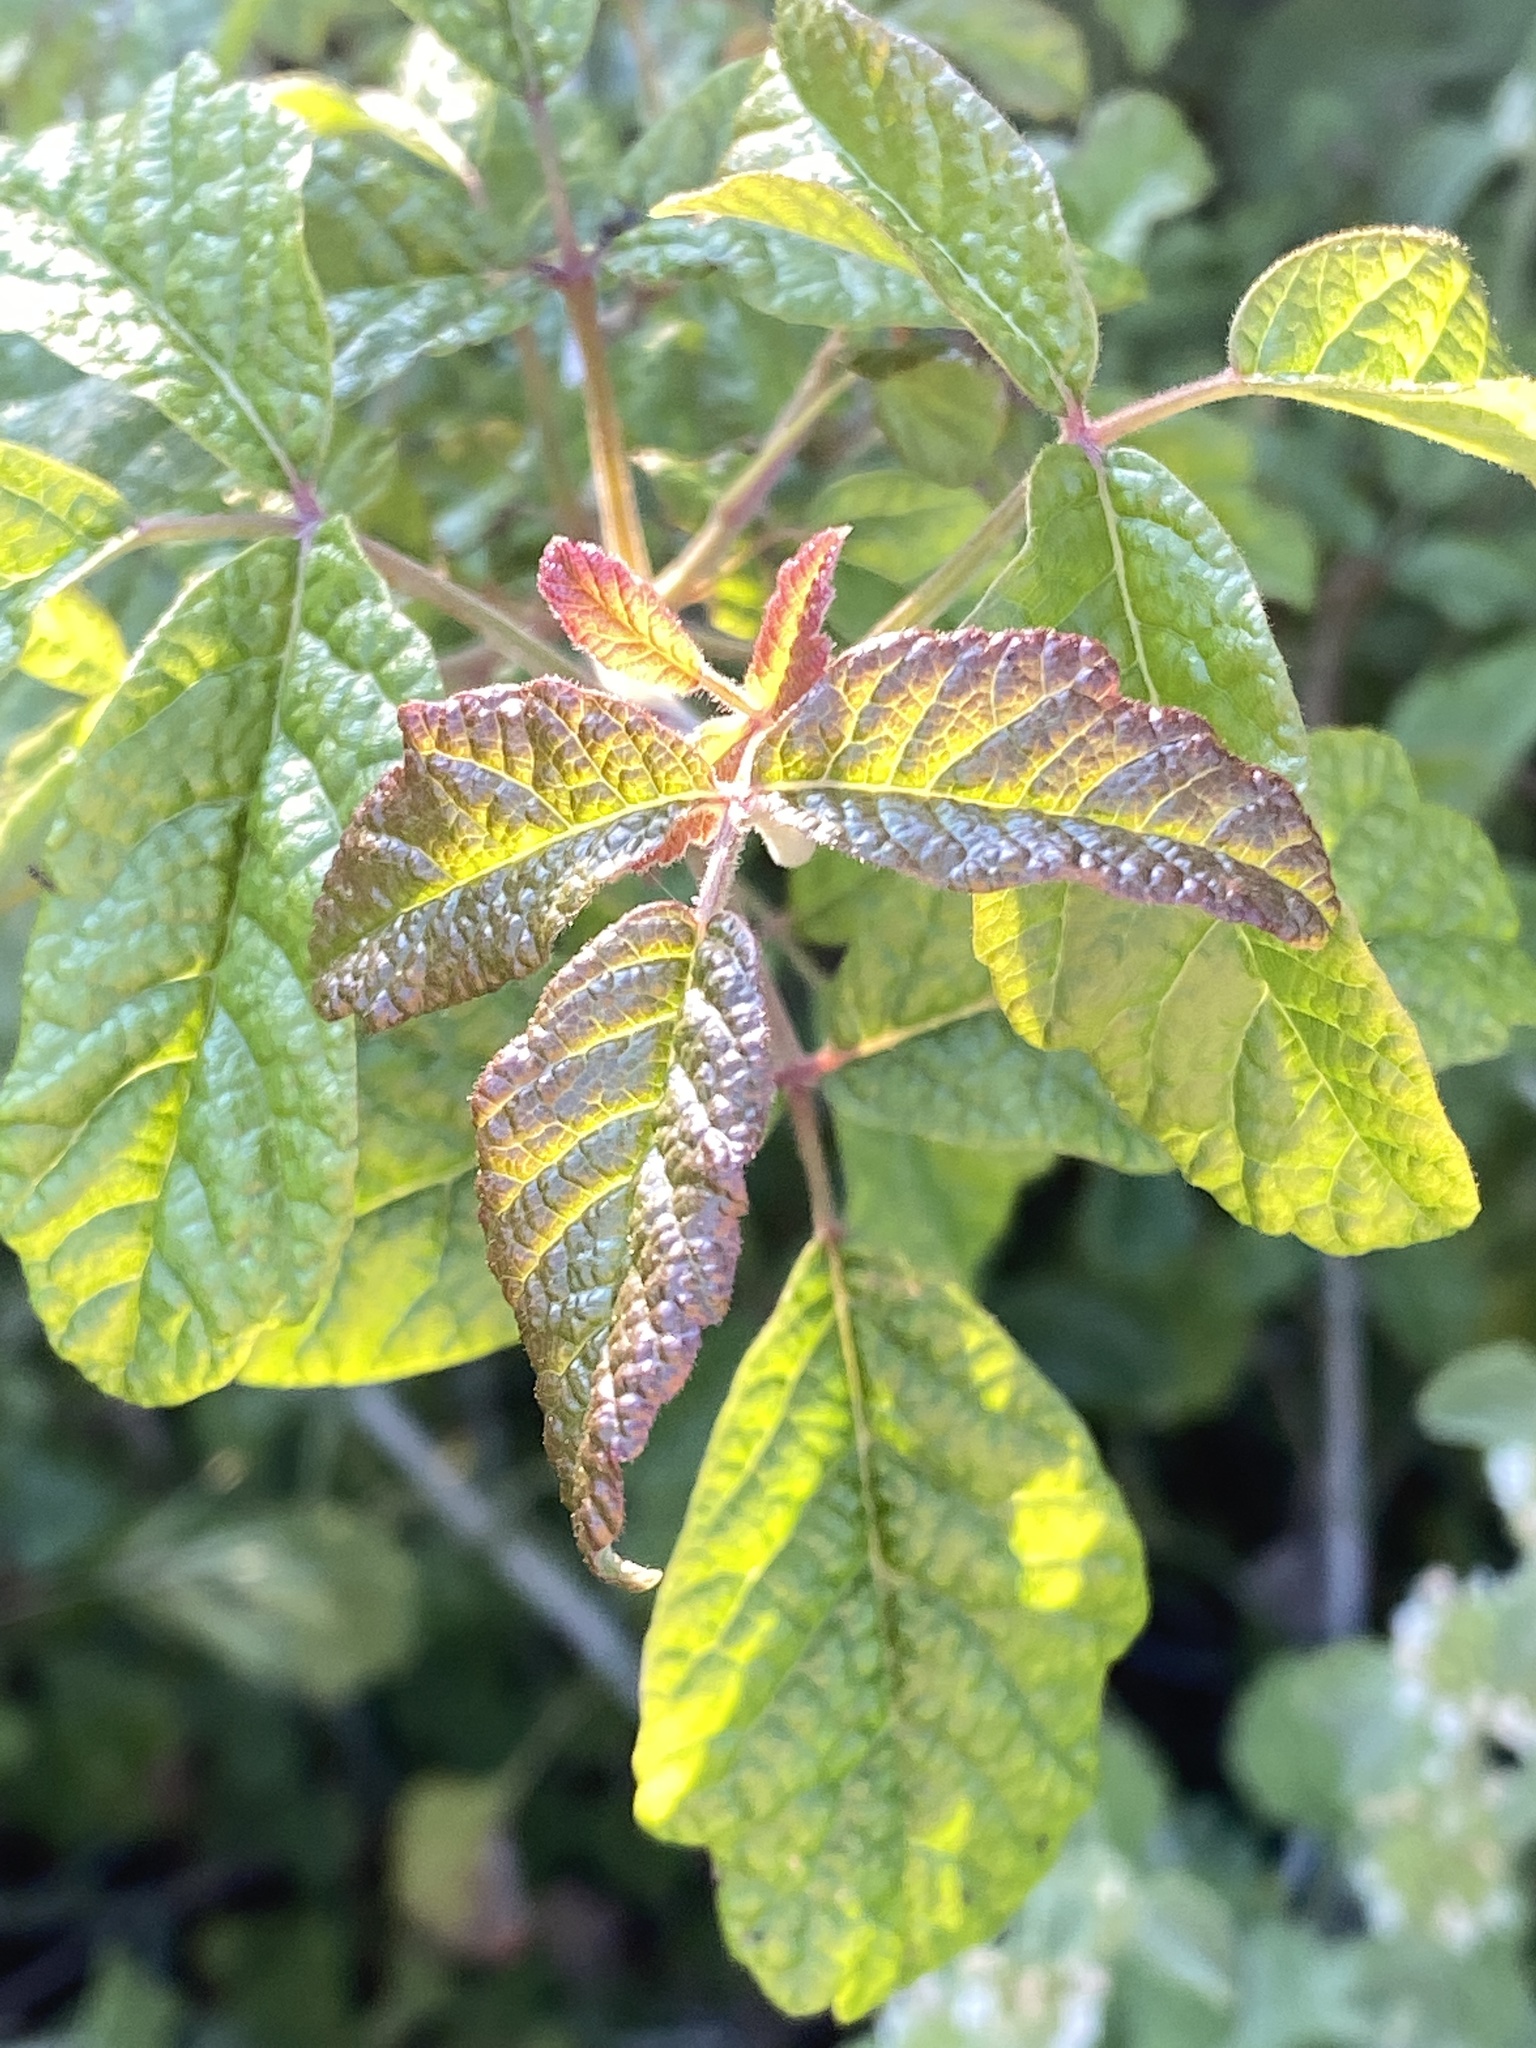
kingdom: Plantae
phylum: Tracheophyta
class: Magnoliopsida
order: Sapindales
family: Anacardiaceae
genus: Toxicodendron
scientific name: Toxicodendron diversilobum
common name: Pacific poison-oak
